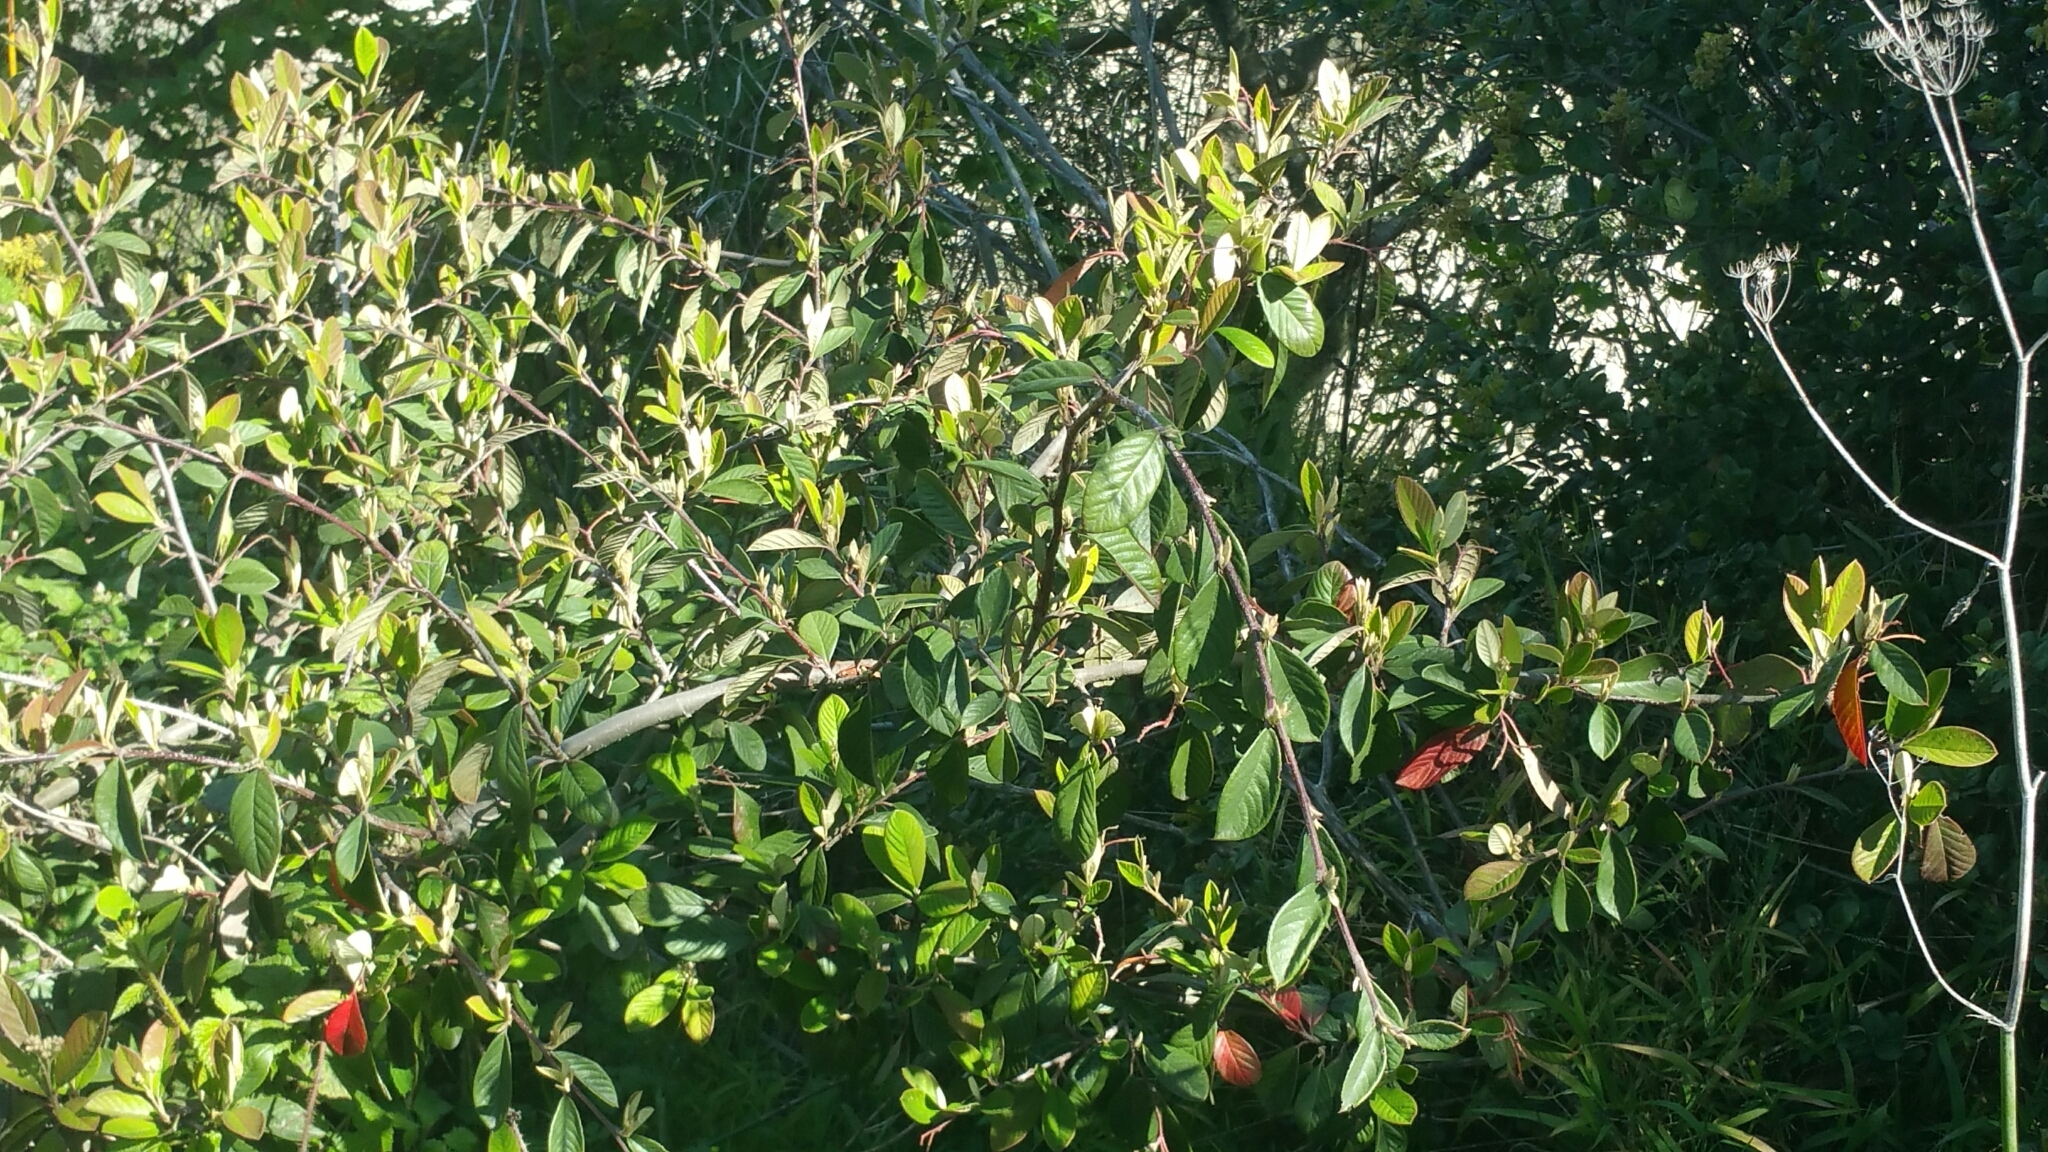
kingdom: Plantae
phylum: Tracheophyta
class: Magnoliopsida
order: Rosales
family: Rosaceae
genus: Cotoneaster
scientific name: Cotoneaster coriaceus
